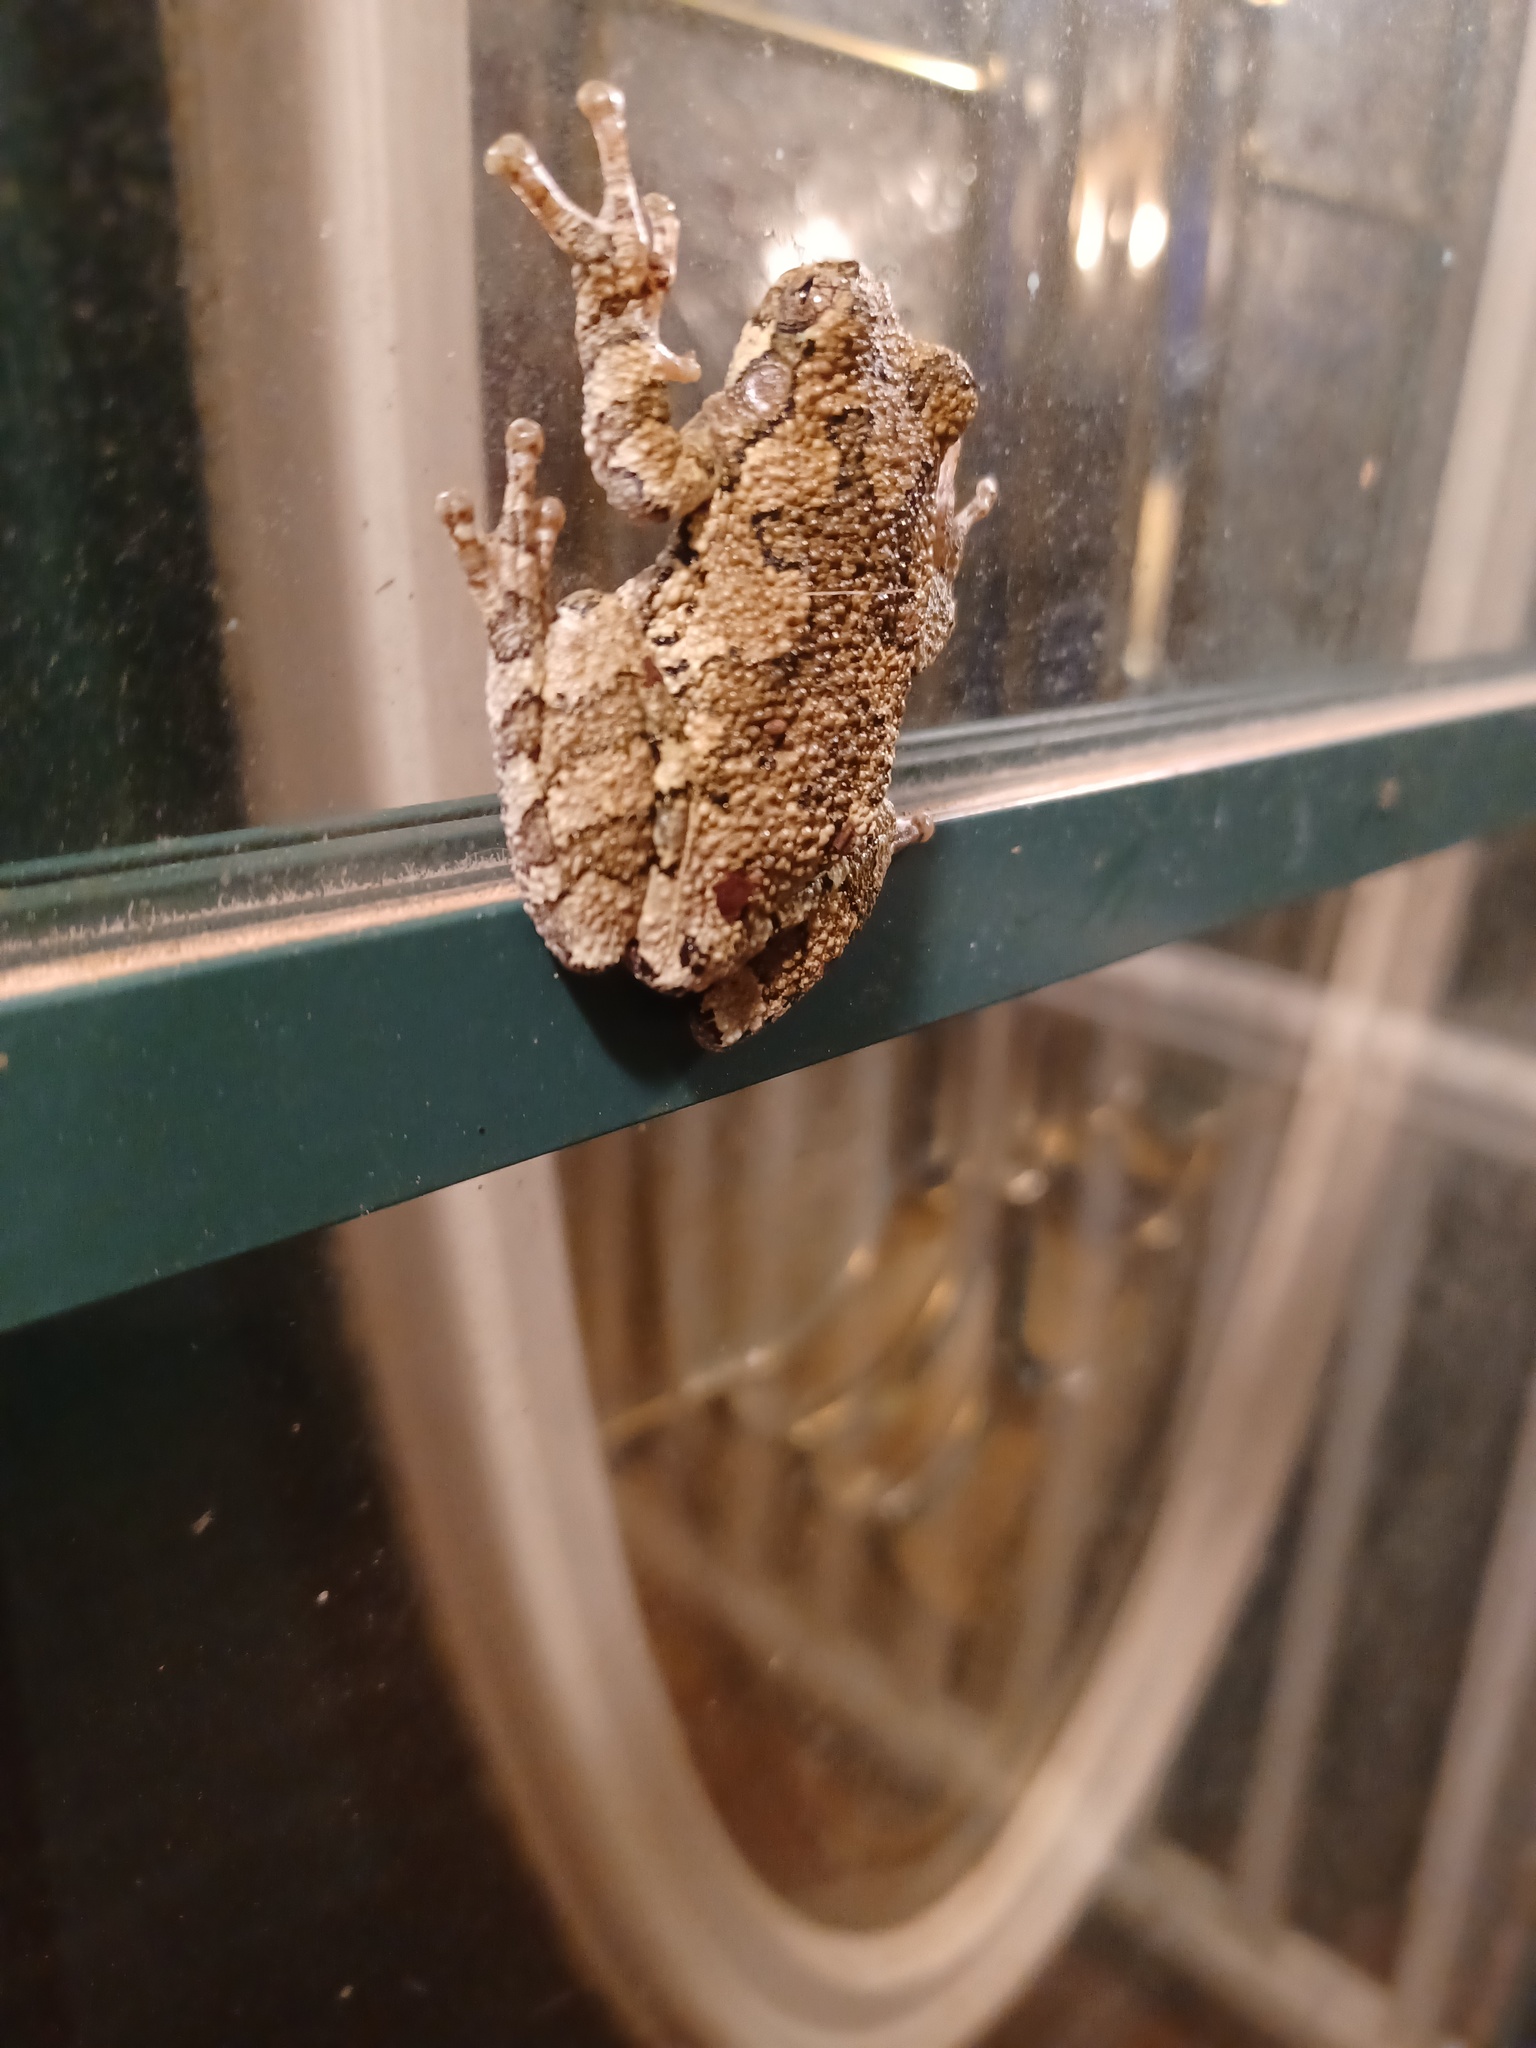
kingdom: Animalia
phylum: Chordata
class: Amphibia
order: Anura
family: Hylidae
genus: Dryophytes
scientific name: Dryophytes chrysoscelis
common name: Cope's gray treefrog
